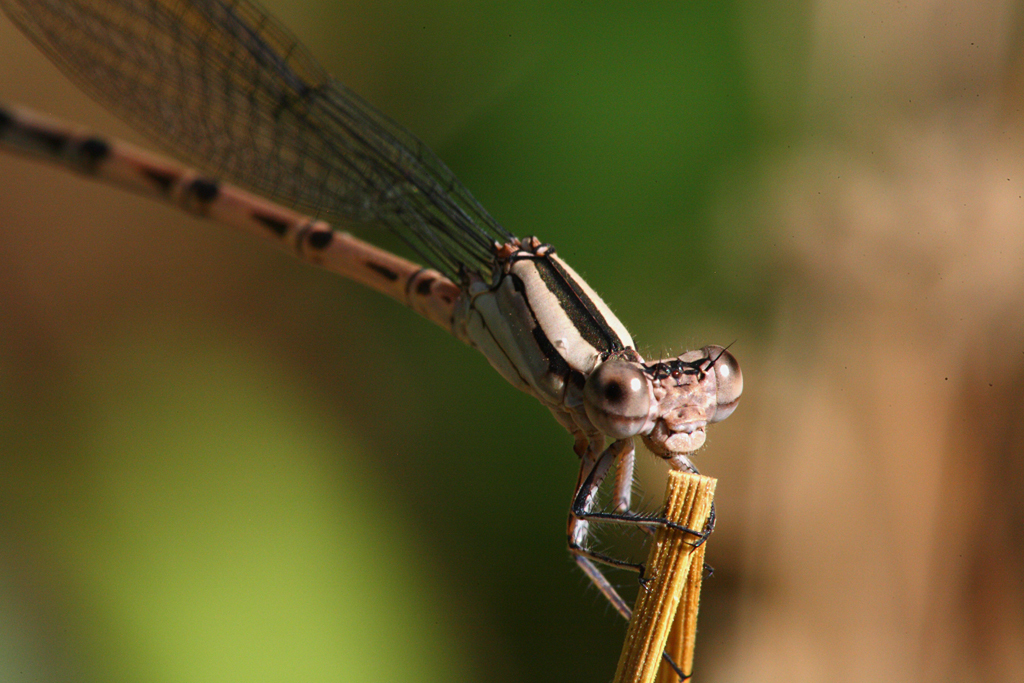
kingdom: Animalia
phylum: Arthropoda
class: Insecta
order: Odonata
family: Coenagrionidae
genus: Argia
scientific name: Argia funebris
